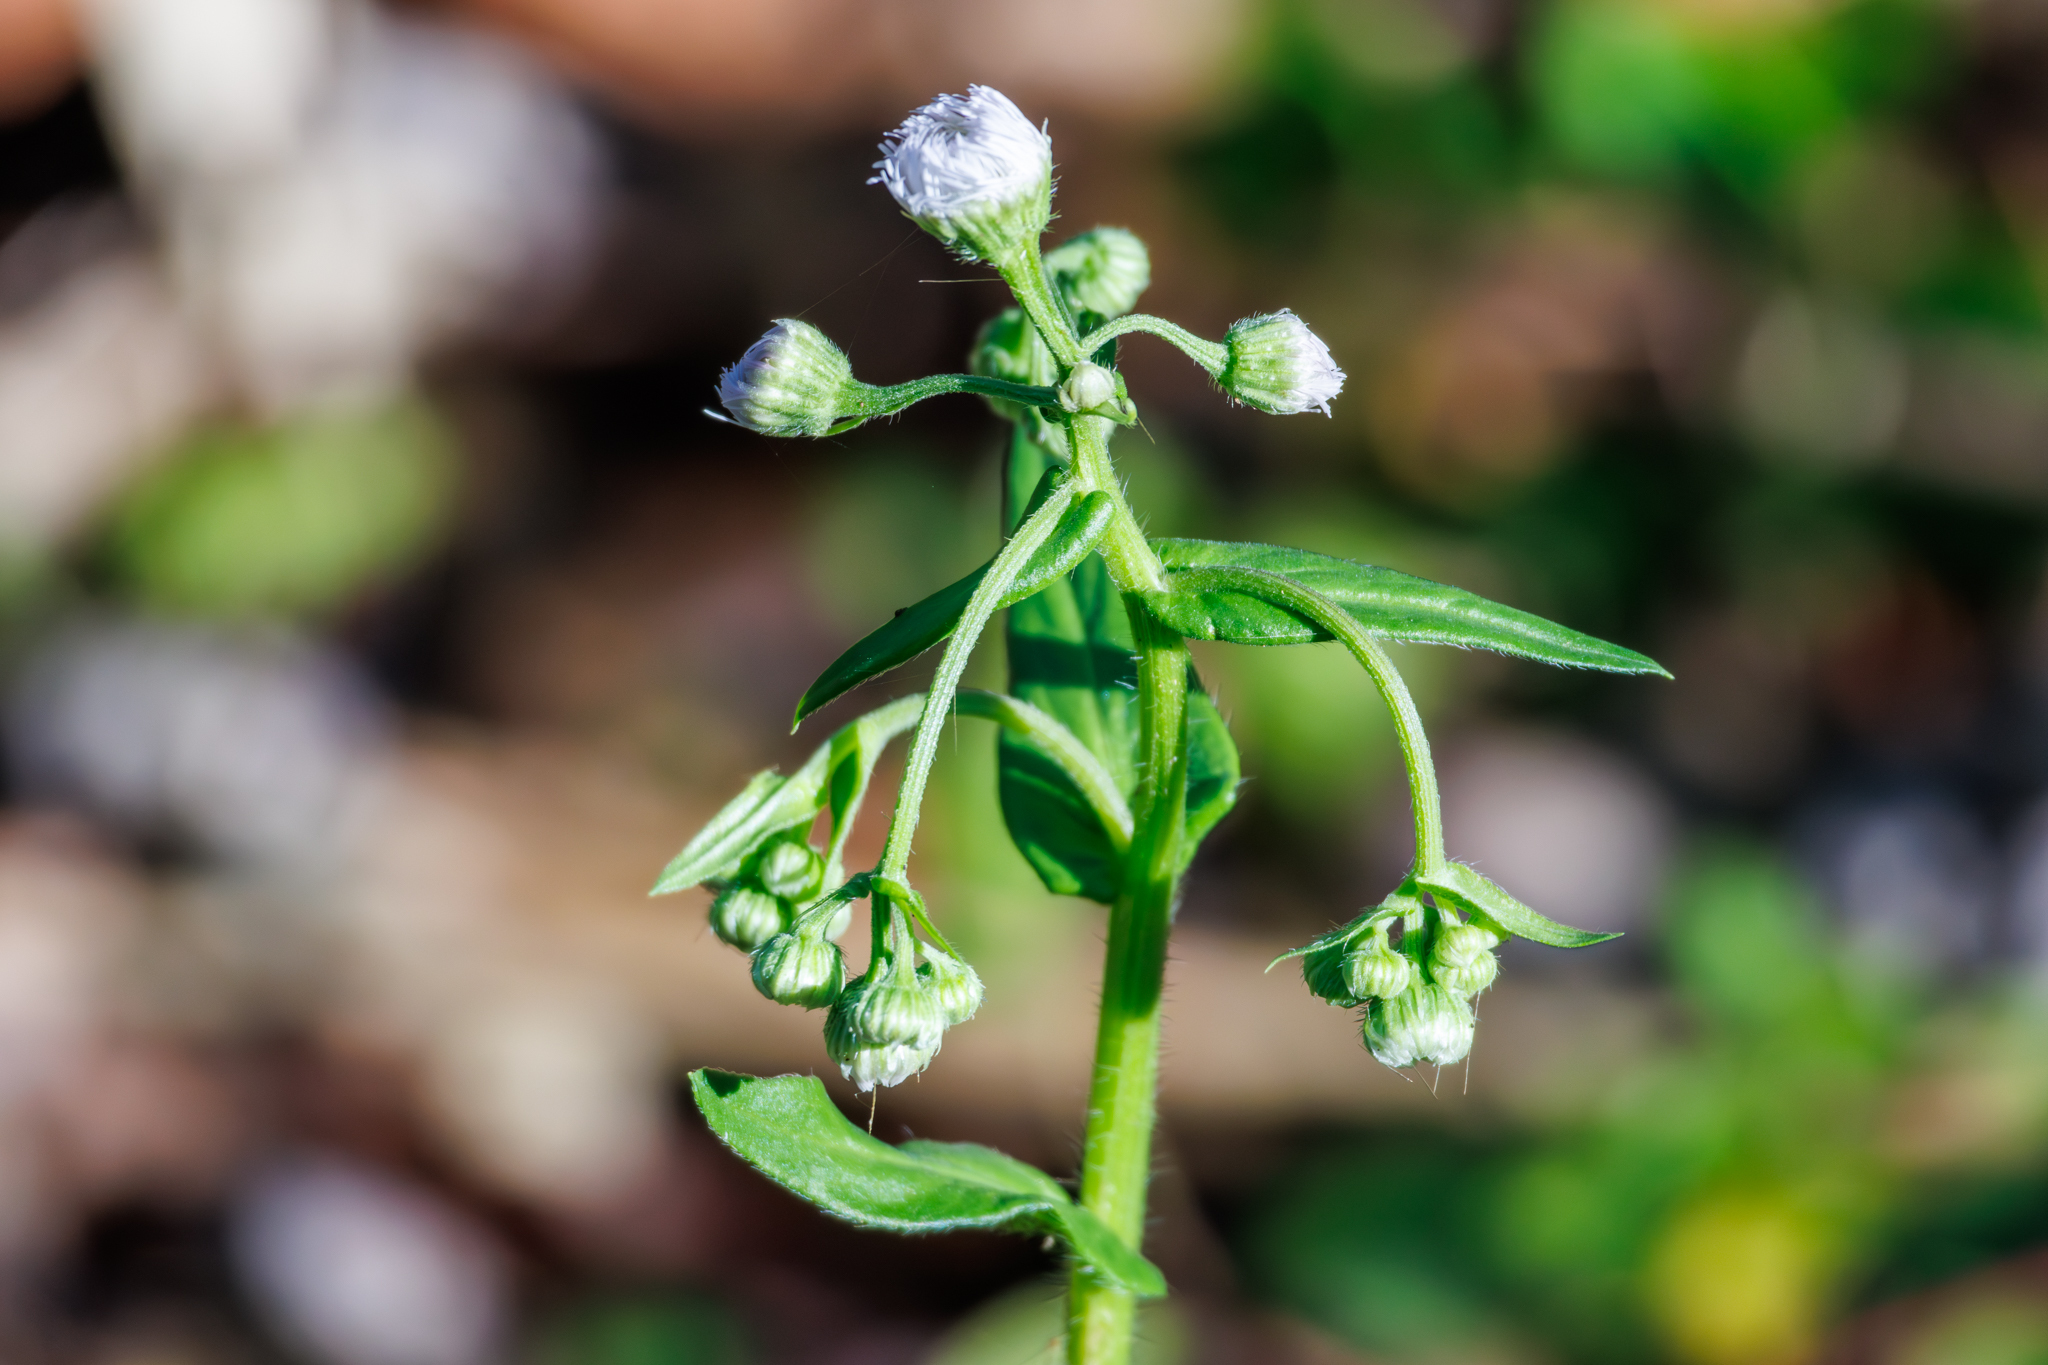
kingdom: Plantae
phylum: Tracheophyta
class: Magnoliopsida
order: Asterales
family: Asteraceae
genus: Erigeron
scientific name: Erigeron philadelphicus
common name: Robin's-plantain
